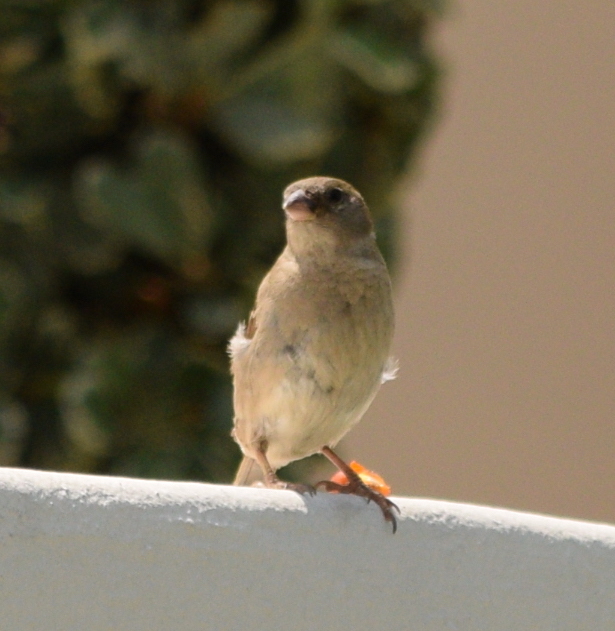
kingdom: Animalia
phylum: Chordata
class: Aves
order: Passeriformes
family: Passeridae
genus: Passer
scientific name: Passer domesticus
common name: House sparrow
